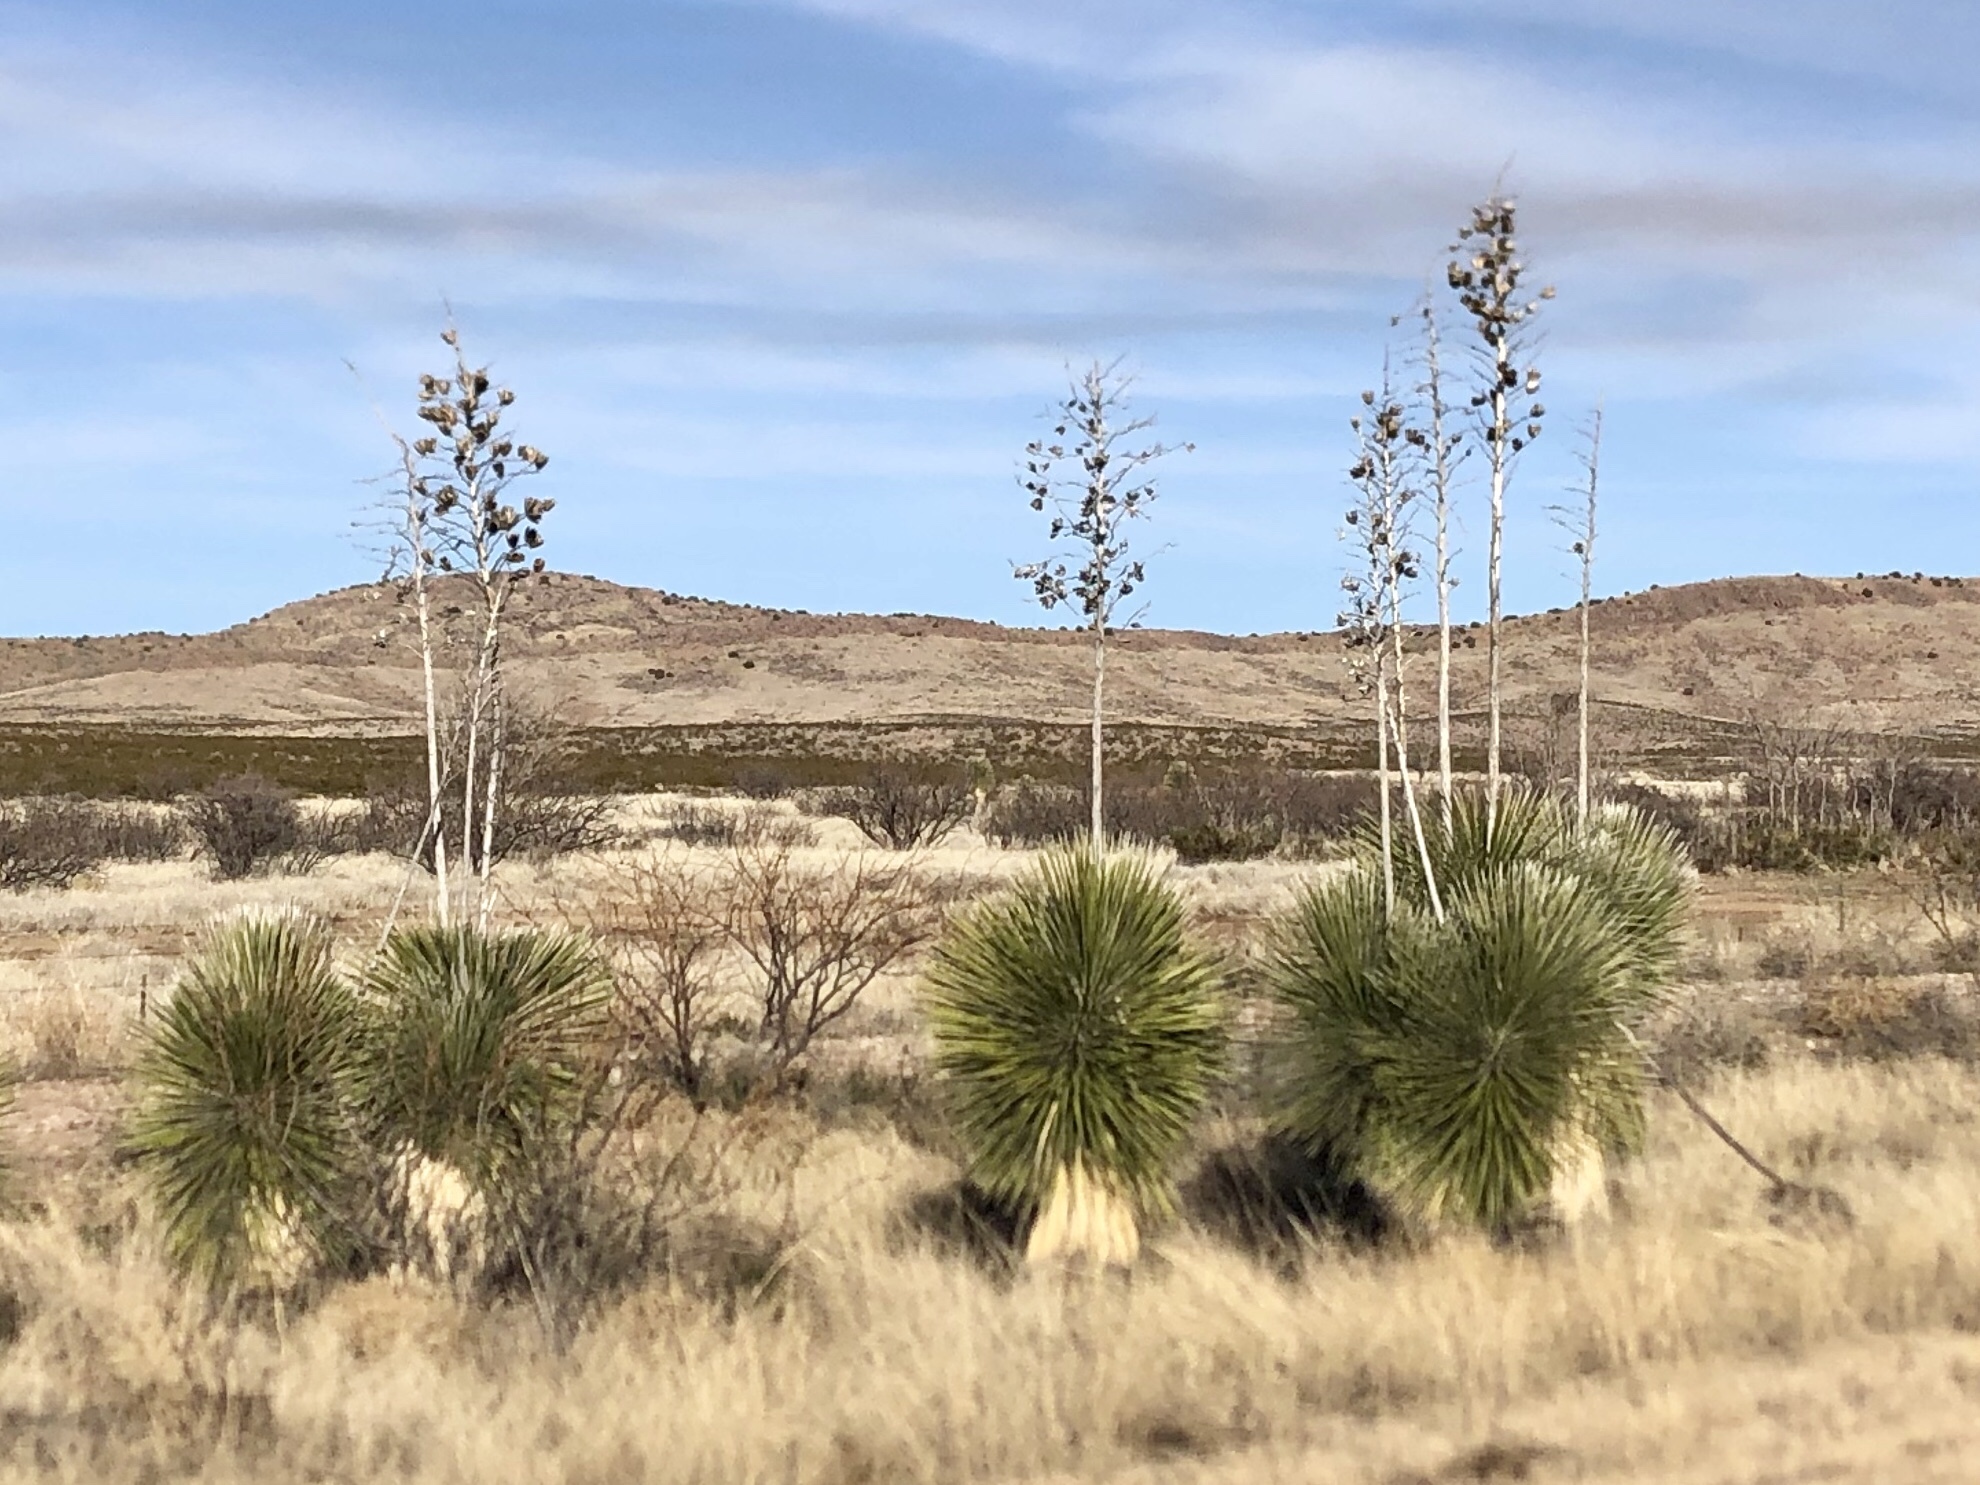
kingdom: Plantae
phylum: Tracheophyta
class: Liliopsida
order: Asparagales
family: Asparagaceae
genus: Yucca
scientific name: Yucca elata
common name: Palmella
